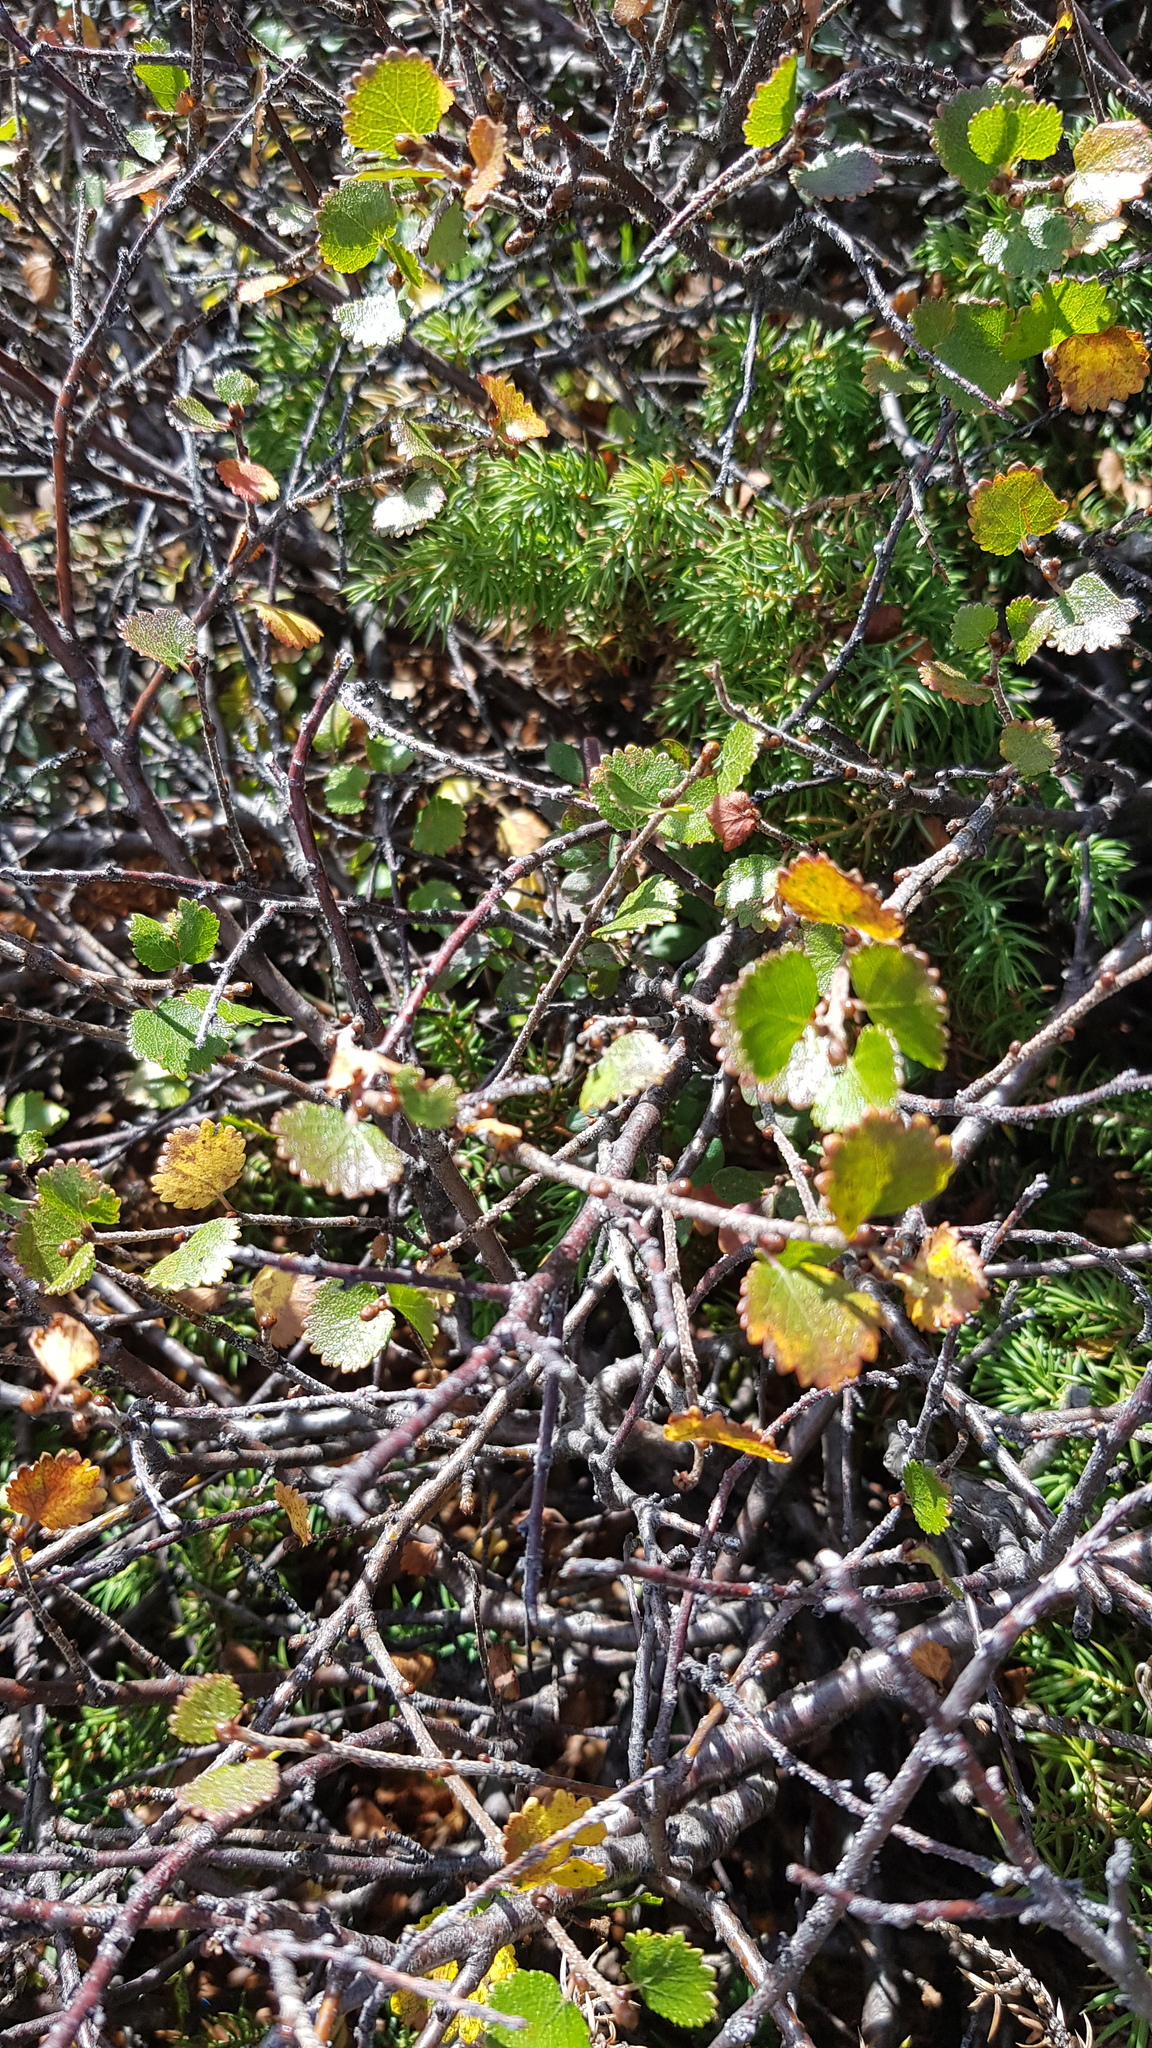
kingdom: Plantae
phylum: Tracheophyta
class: Magnoliopsida
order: Fagales
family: Betulaceae
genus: Betula
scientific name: Betula glandulosa
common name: Dwarf birch
